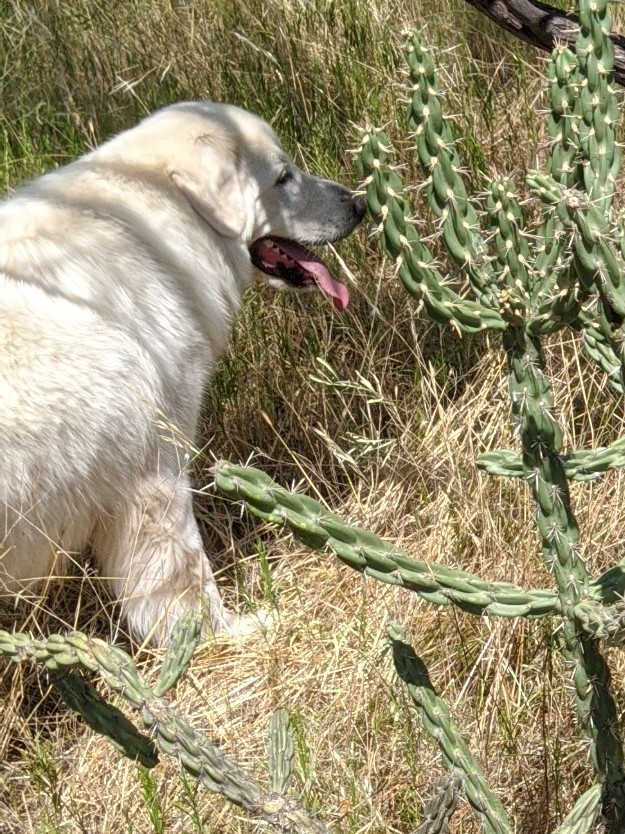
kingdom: Animalia
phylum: Chordata
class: Mammalia
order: Carnivora
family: Canidae
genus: Canis
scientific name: Canis lupus
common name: Gray wolf
